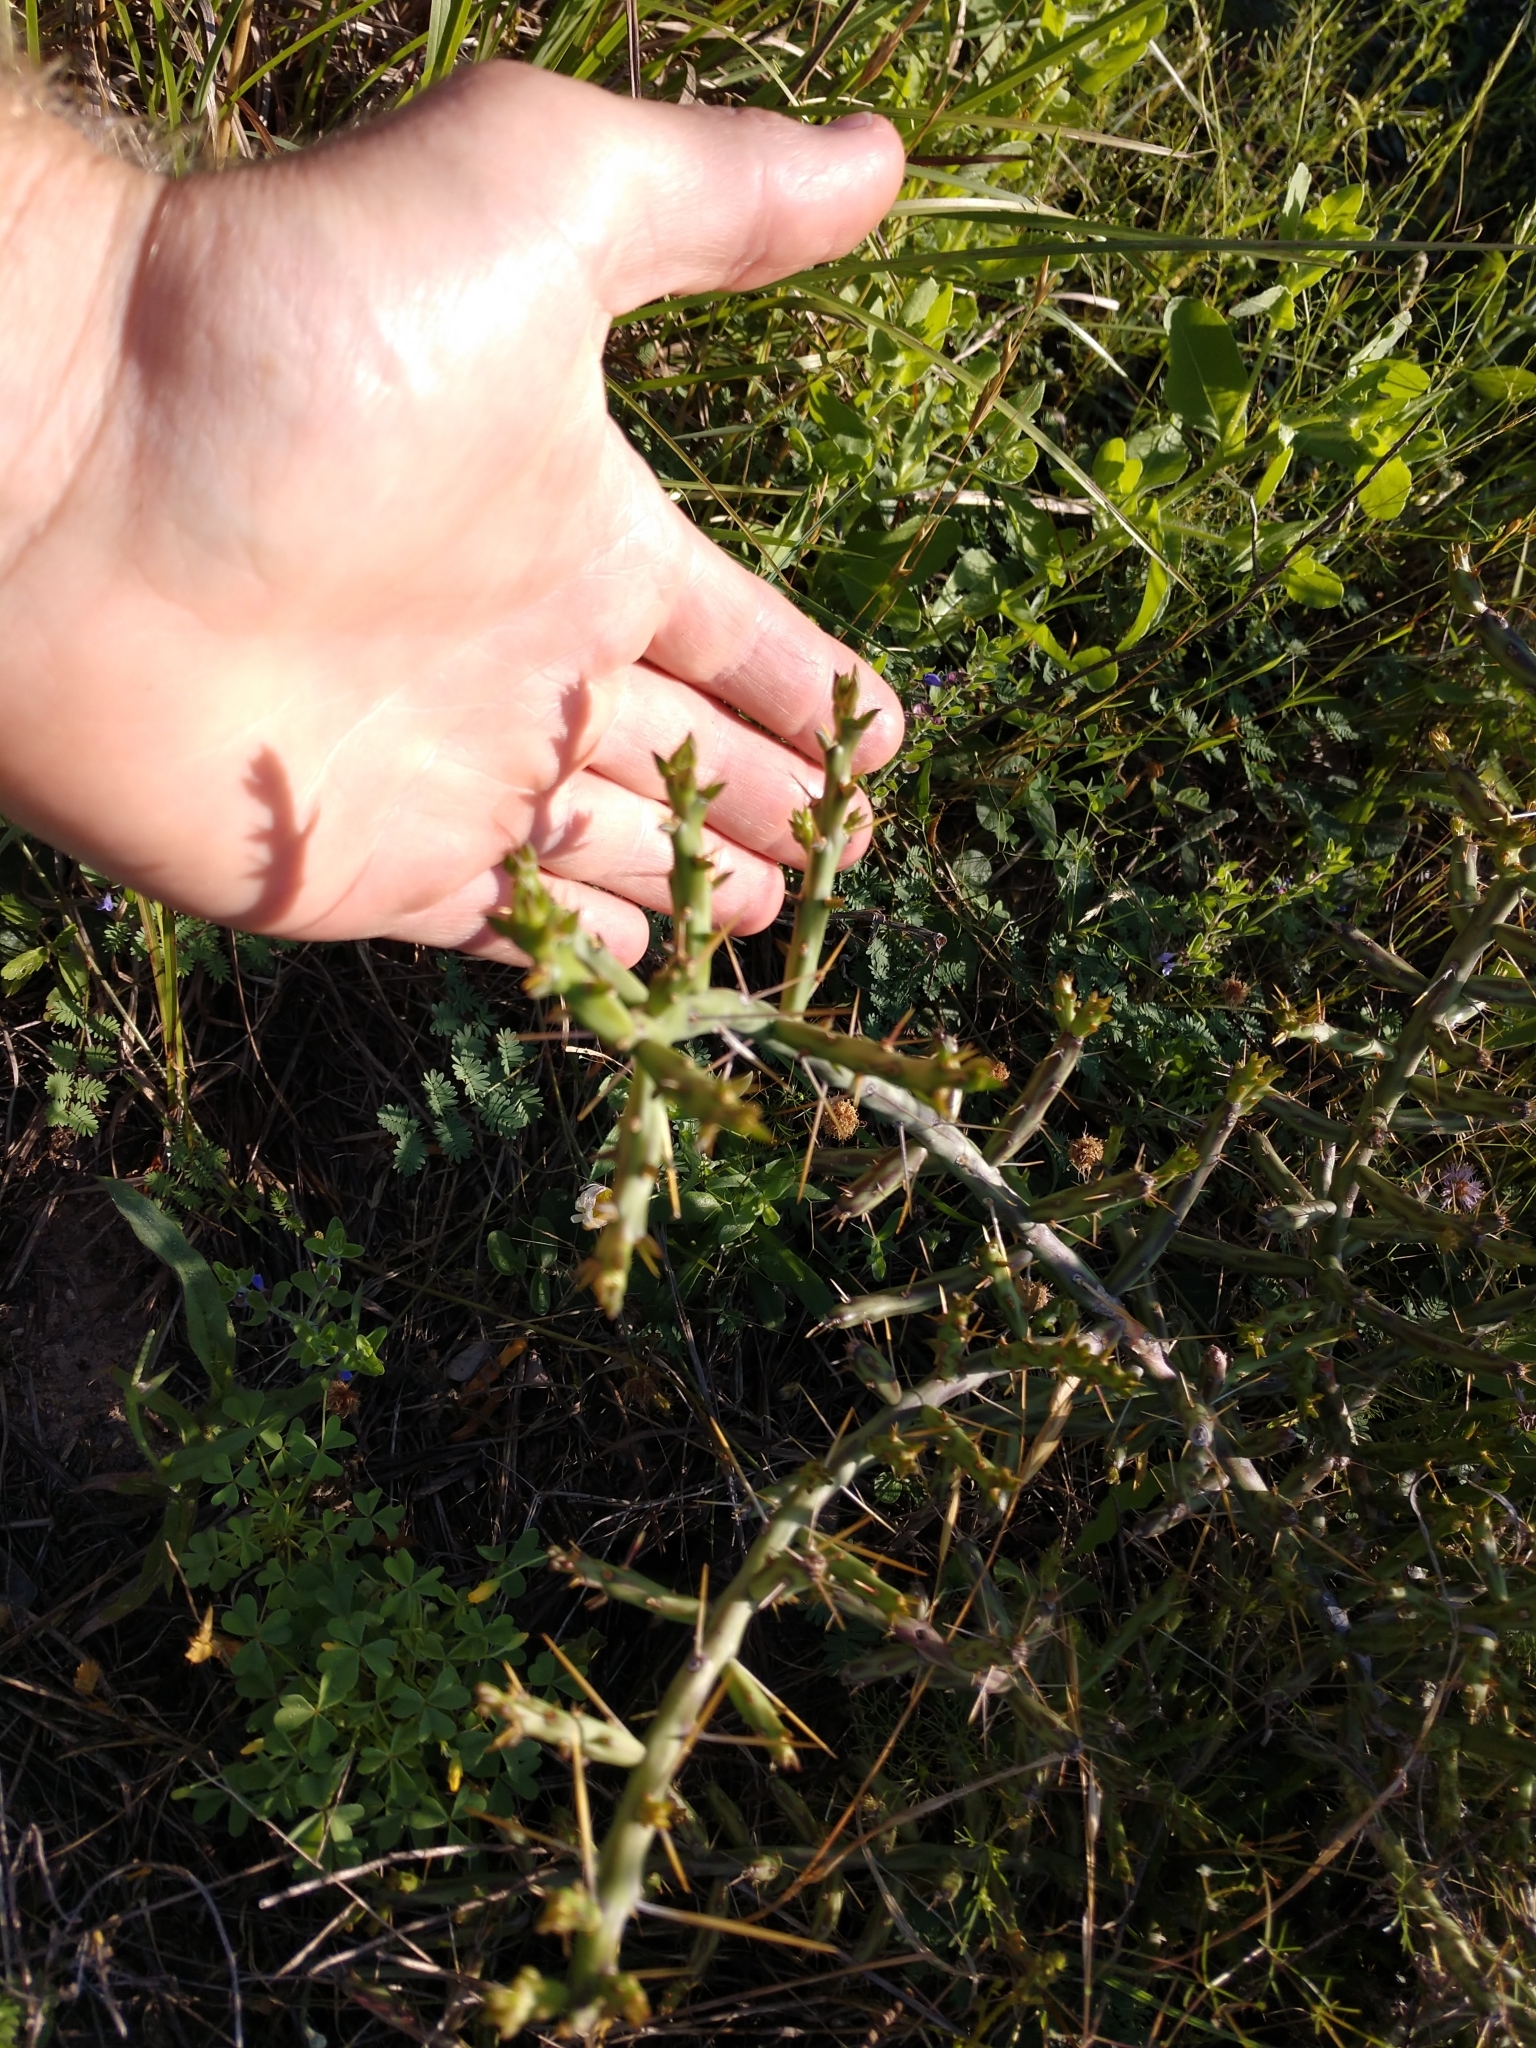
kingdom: Plantae
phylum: Tracheophyta
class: Magnoliopsida
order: Caryophyllales
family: Cactaceae
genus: Cylindropuntia
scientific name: Cylindropuntia leptocaulis
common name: Christmas cactus
